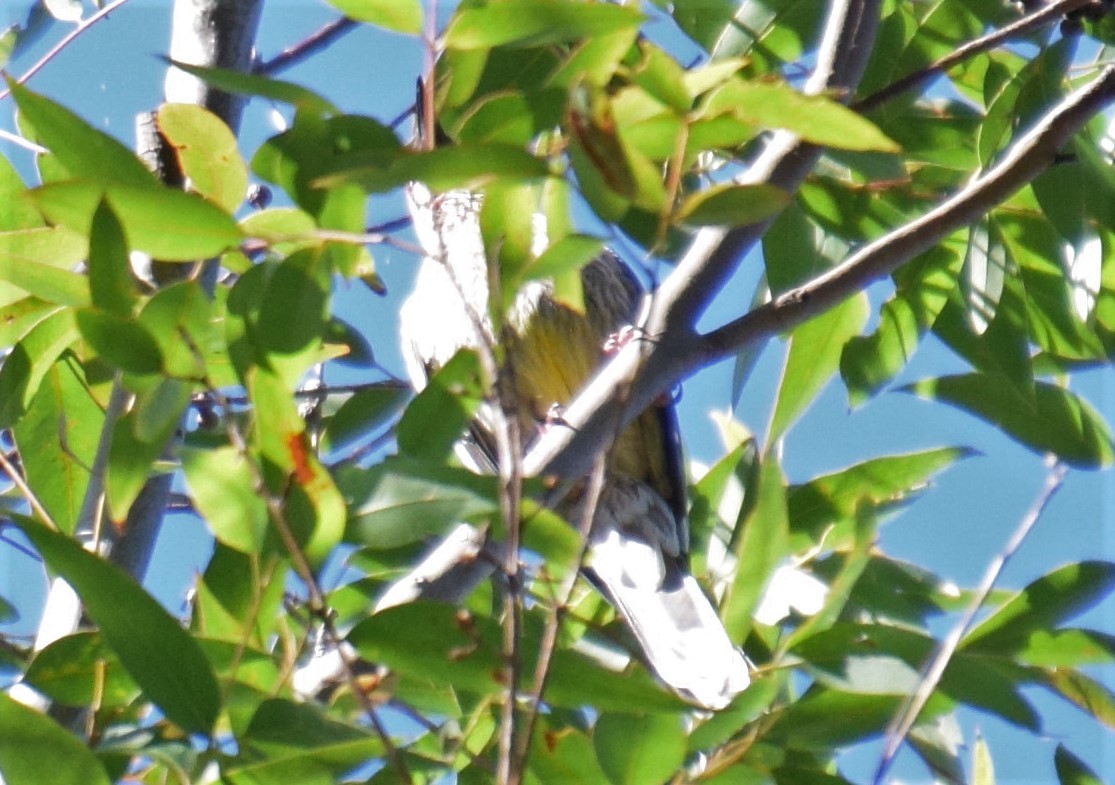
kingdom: Animalia
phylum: Chordata
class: Aves
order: Passeriformes
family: Meliphagidae
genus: Anthochaera
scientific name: Anthochaera carunculata
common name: Red wattlebird
